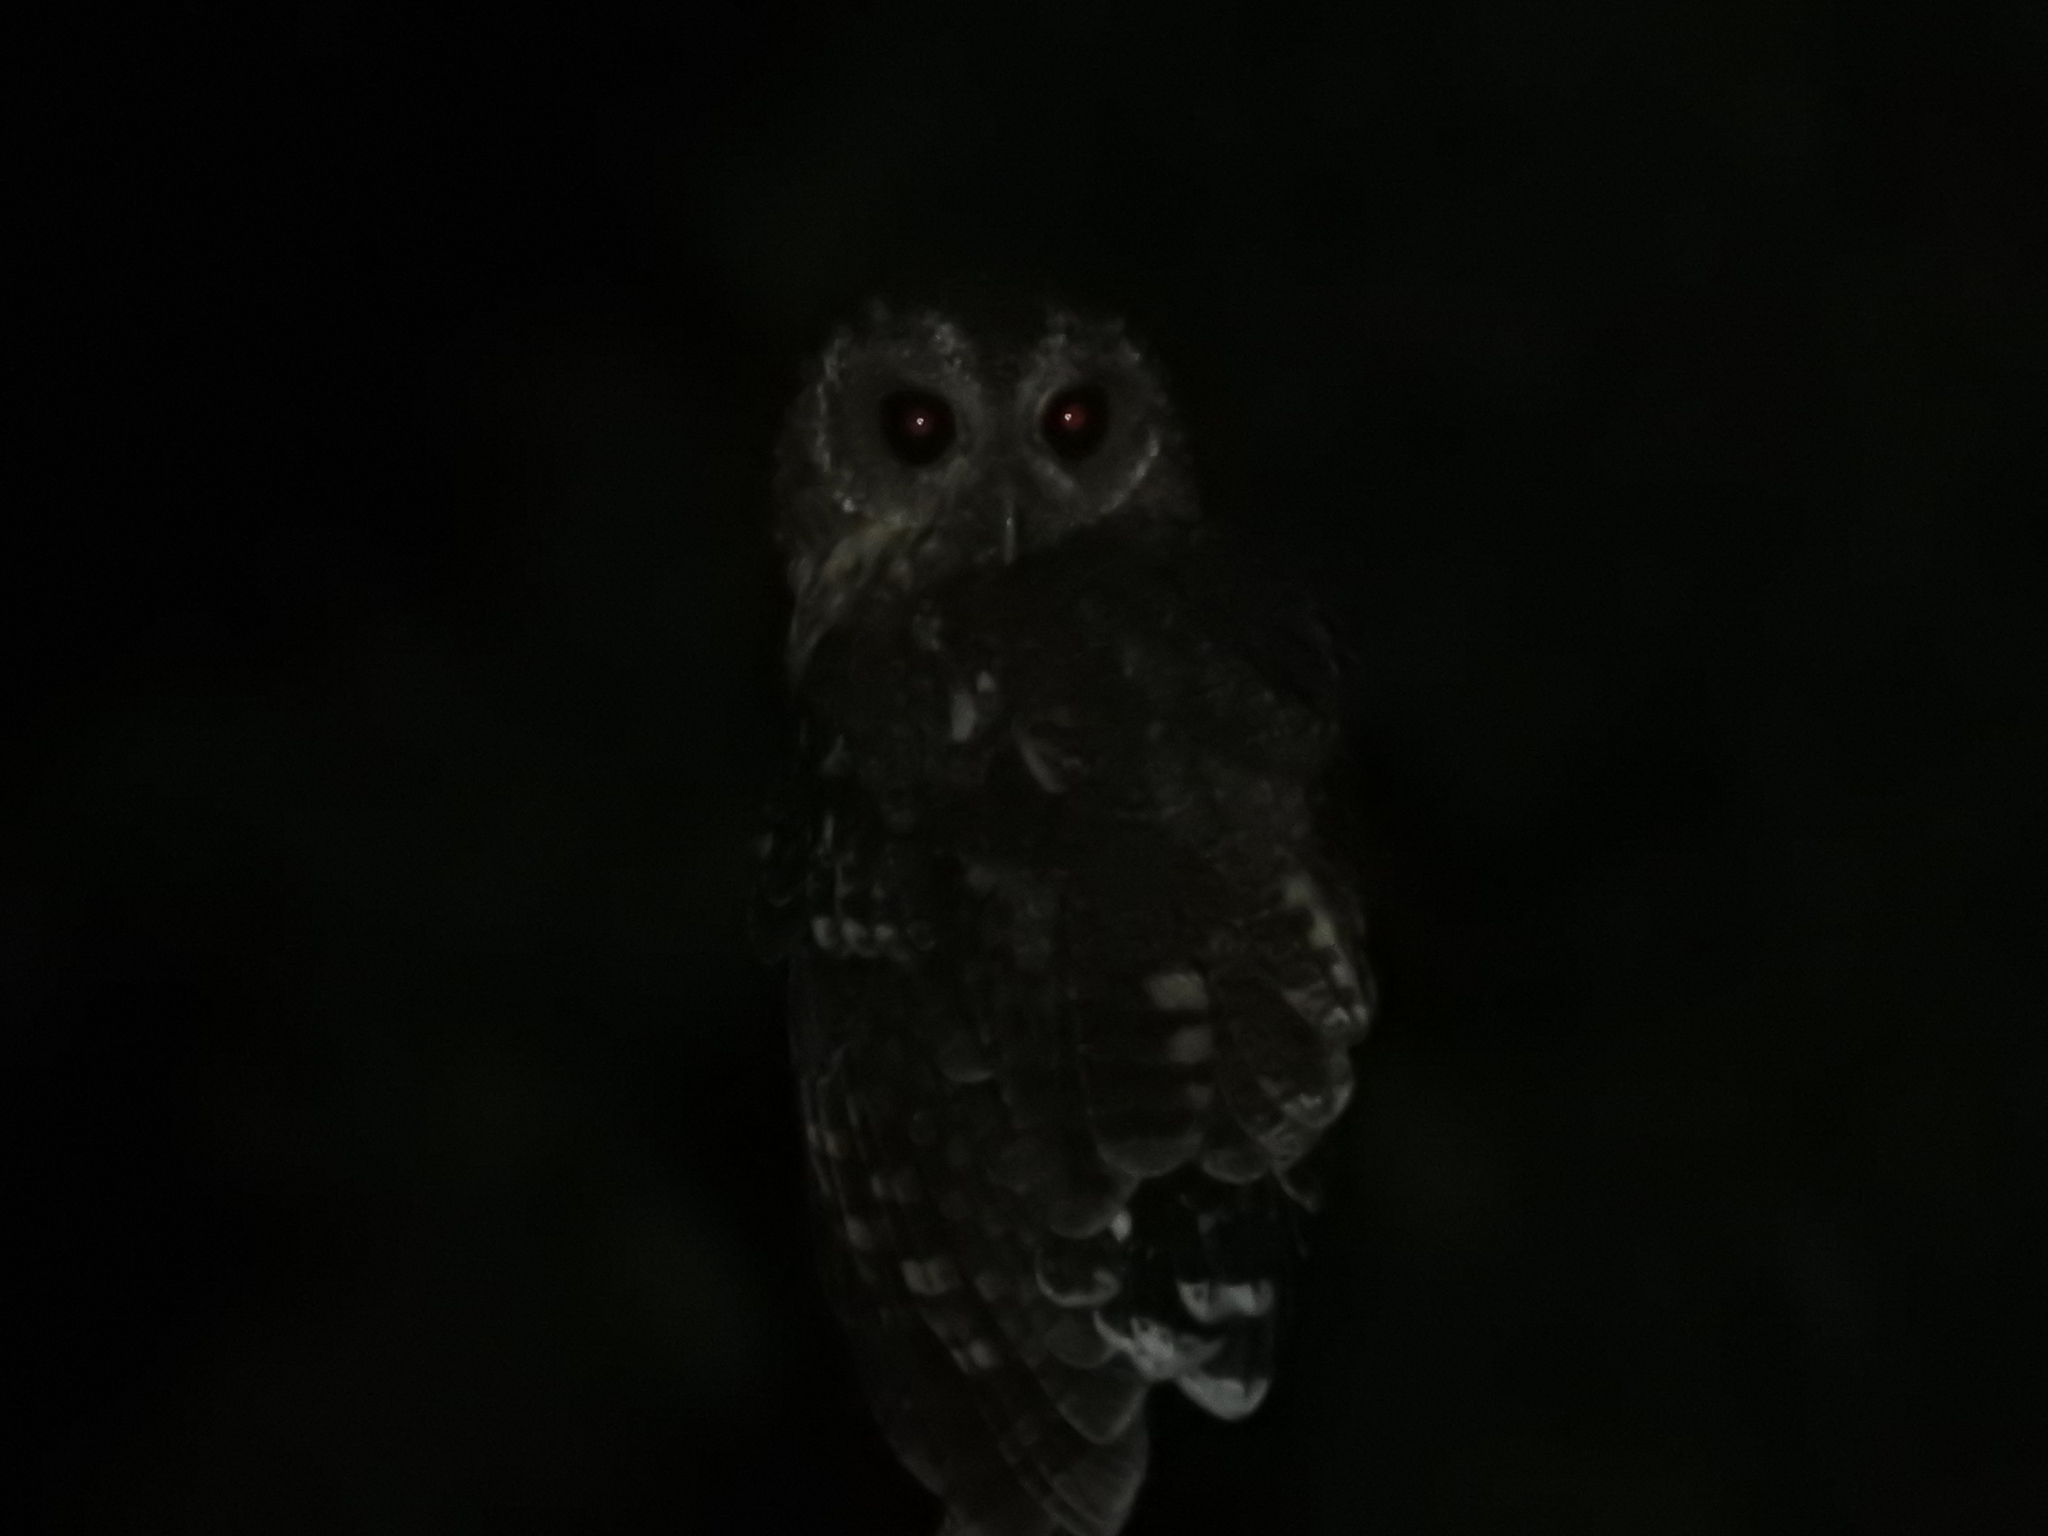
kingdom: Animalia
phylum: Chordata
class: Aves
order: Strigiformes
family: Strigidae
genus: Strix
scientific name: Strix virgata
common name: Mottled owl
